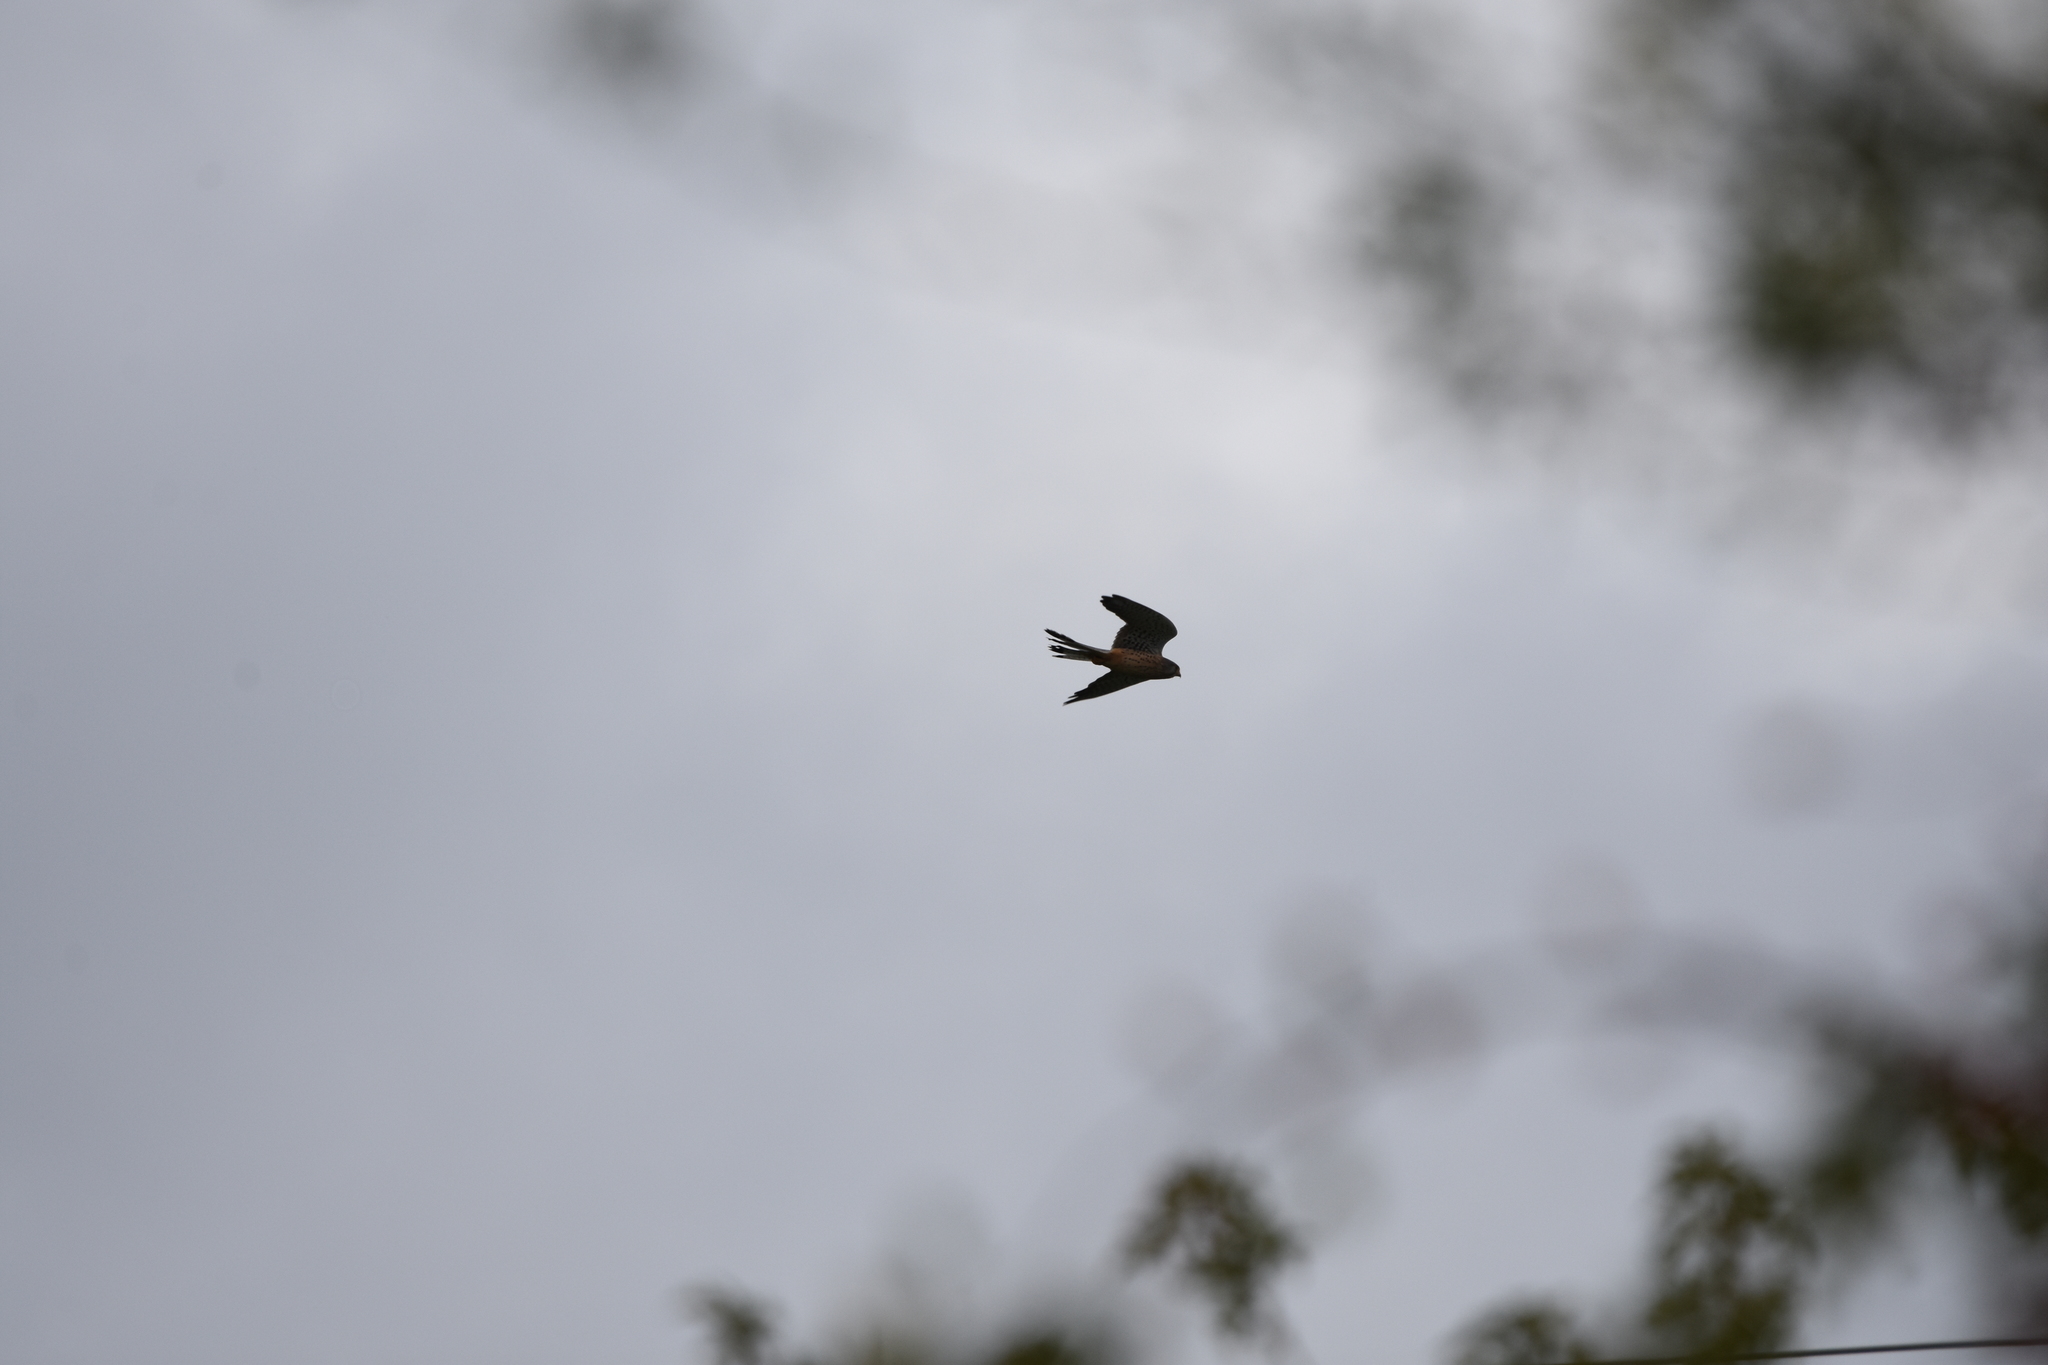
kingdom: Animalia
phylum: Chordata
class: Aves
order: Falconiformes
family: Falconidae
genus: Falco
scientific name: Falco tinnunculus
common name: Common kestrel
